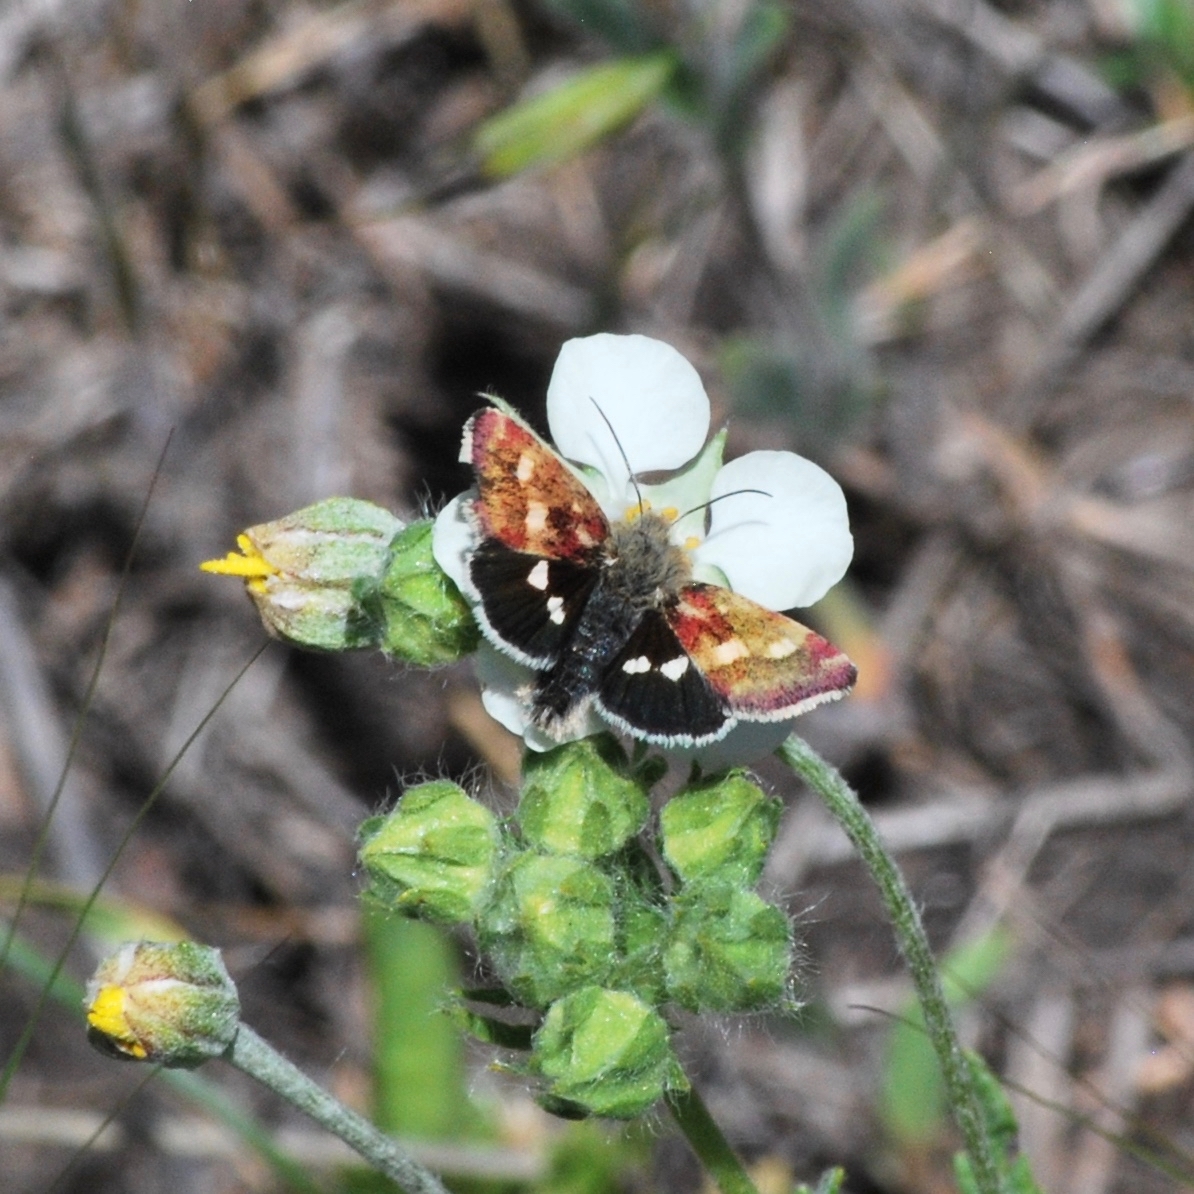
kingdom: Animalia
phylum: Arthropoda
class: Insecta
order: Lepidoptera
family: Noctuidae
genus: Heliothodes
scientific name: Heliothodes diminutiva
